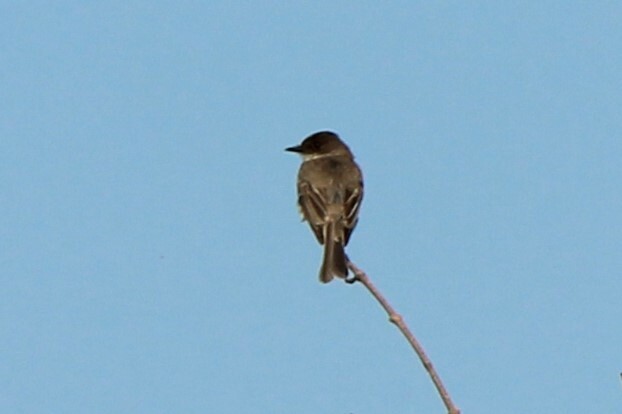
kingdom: Animalia
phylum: Chordata
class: Aves
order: Passeriformes
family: Tyrannidae
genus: Sayornis
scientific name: Sayornis phoebe
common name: Eastern phoebe
